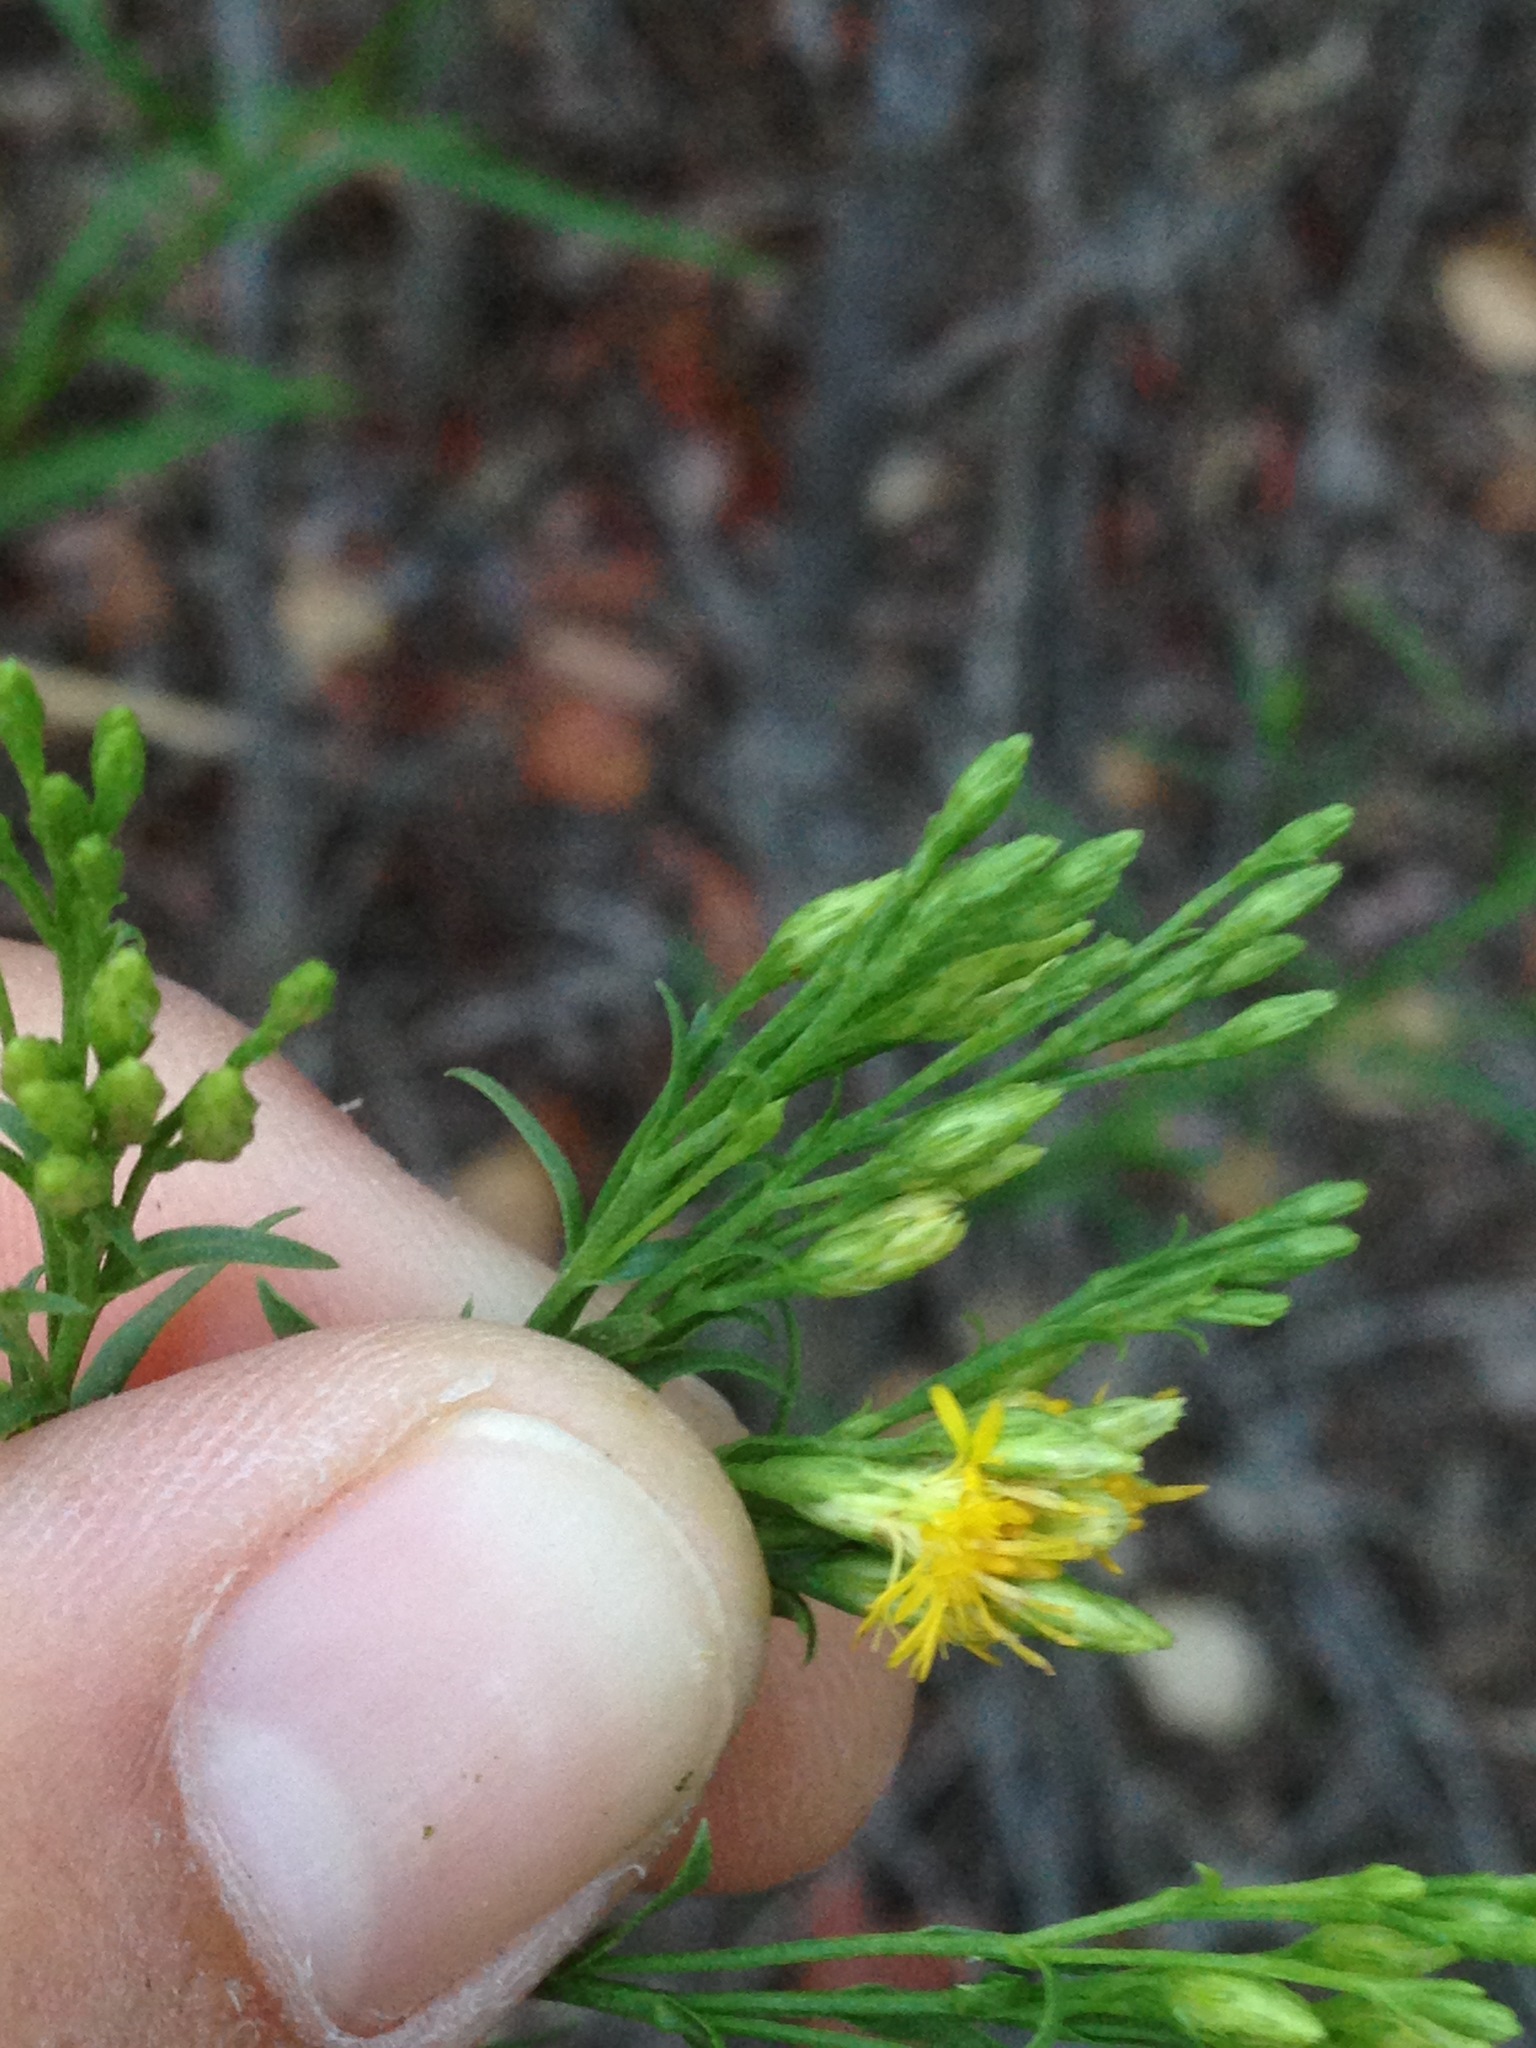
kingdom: Plantae
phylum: Tracheophyta
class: Magnoliopsida
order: Asterales
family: Asteraceae
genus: Euthamia
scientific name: Euthamia occidentalis
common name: Western goldentop
